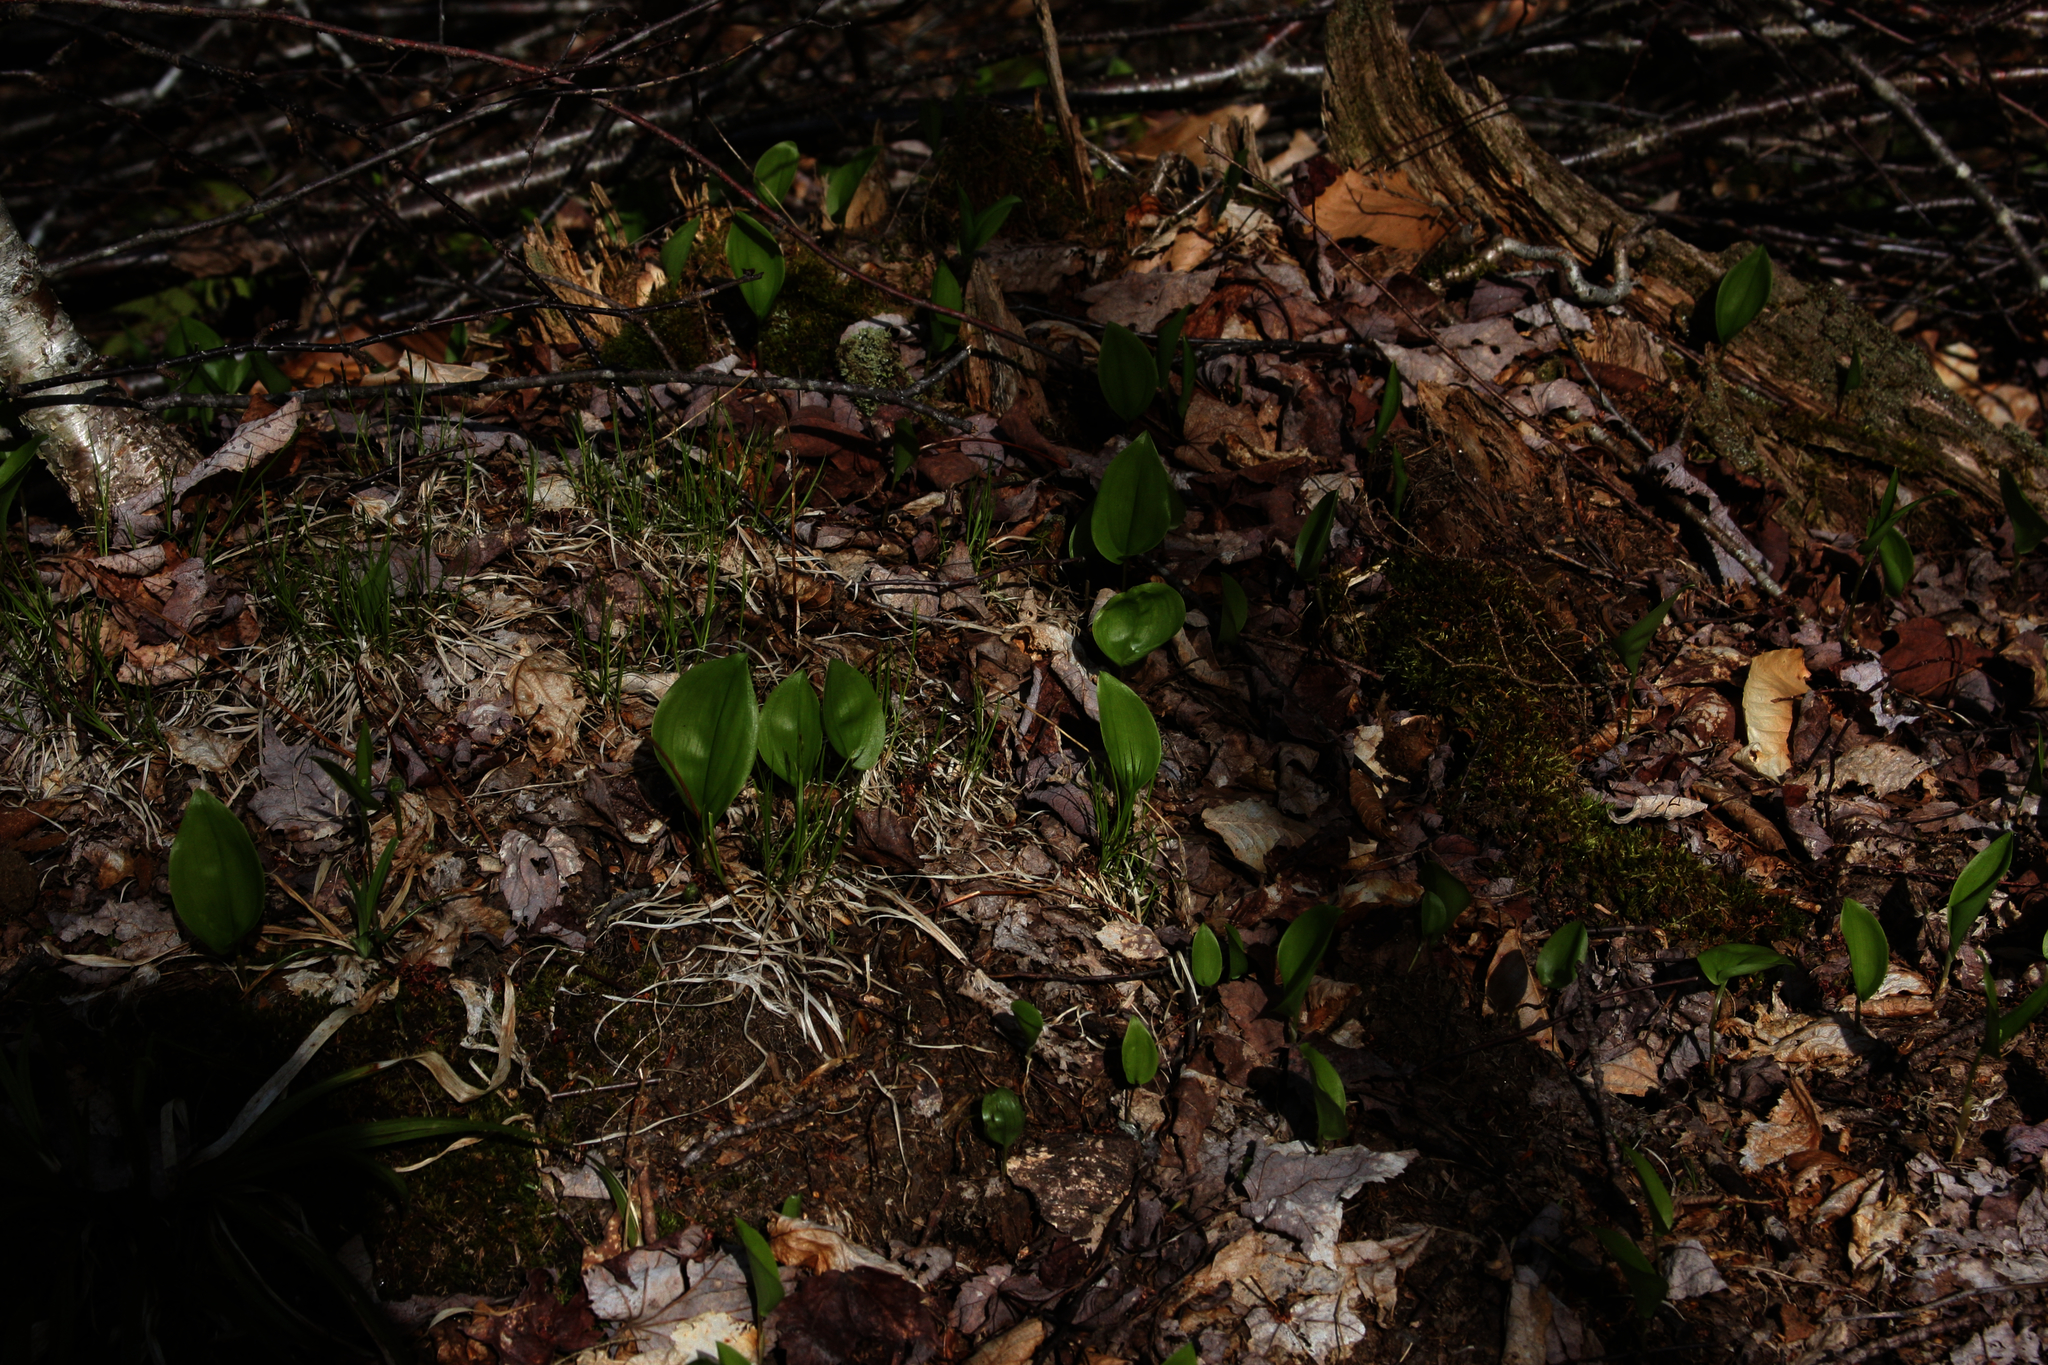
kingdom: Plantae
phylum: Tracheophyta
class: Liliopsida
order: Asparagales
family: Asparagaceae
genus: Maianthemum
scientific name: Maianthemum canadense
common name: False lily-of-the-valley
